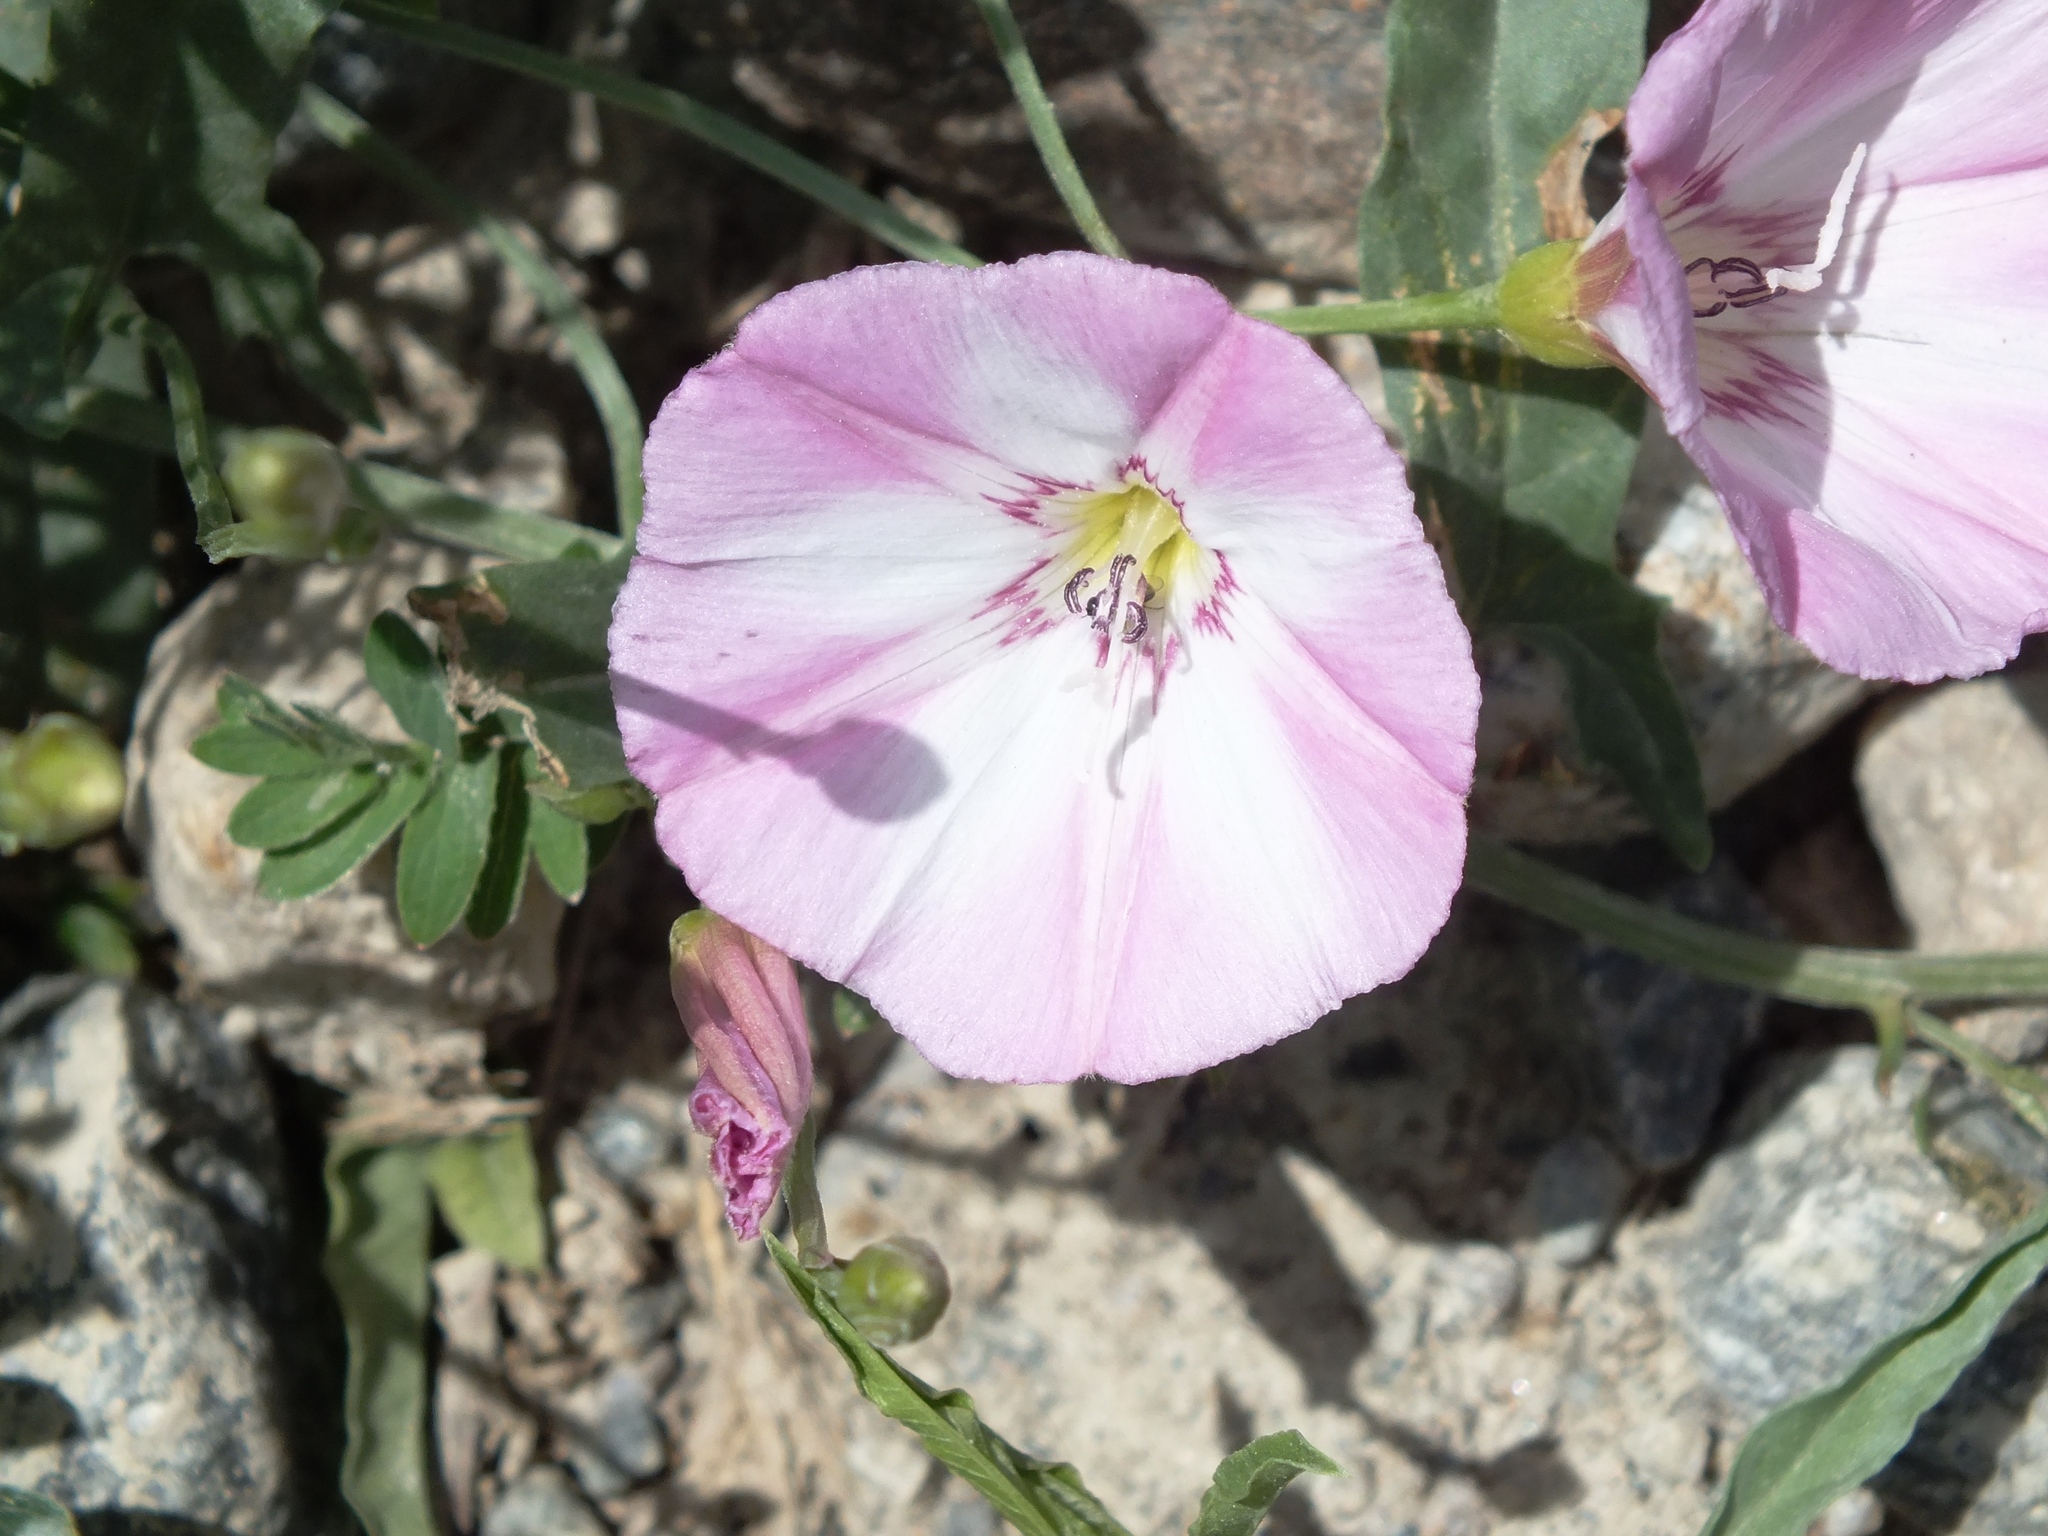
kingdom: Plantae
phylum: Tracheophyta
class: Magnoliopsida
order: Solanales
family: Convolvulaceae
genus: Convolvulus
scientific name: Convolvulus chinensis
